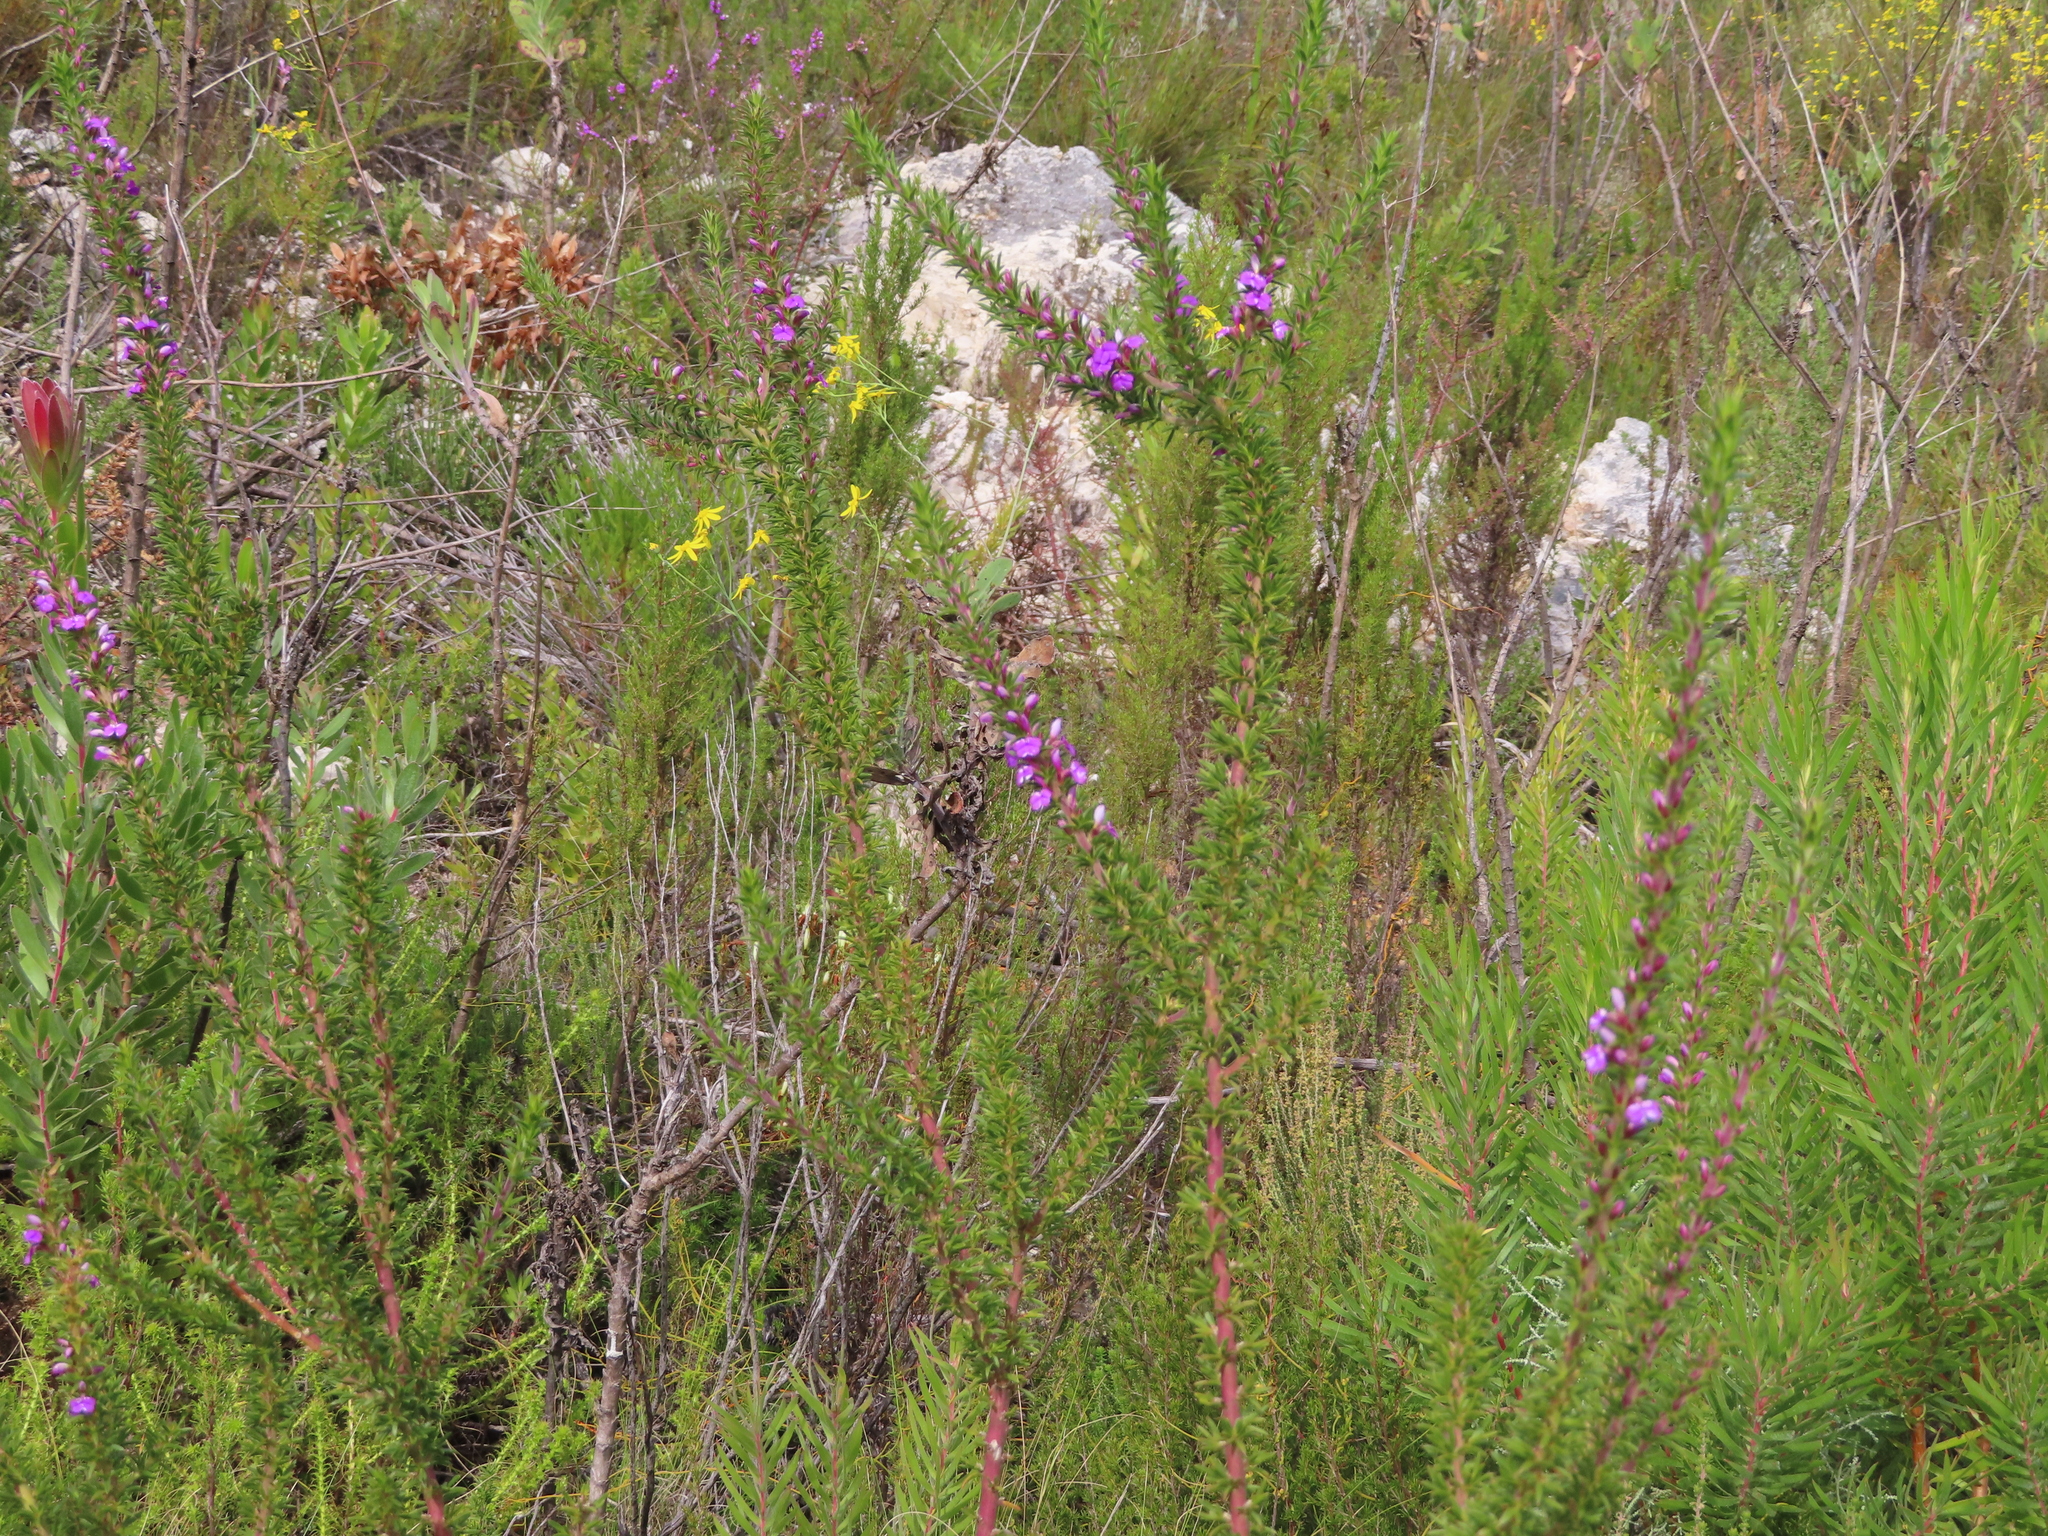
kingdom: Plantae
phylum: Tracheophyta
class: Magnoliopsida
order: Fabales
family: Polygalaceae
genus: Muraltia
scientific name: Muraltia heisteria
